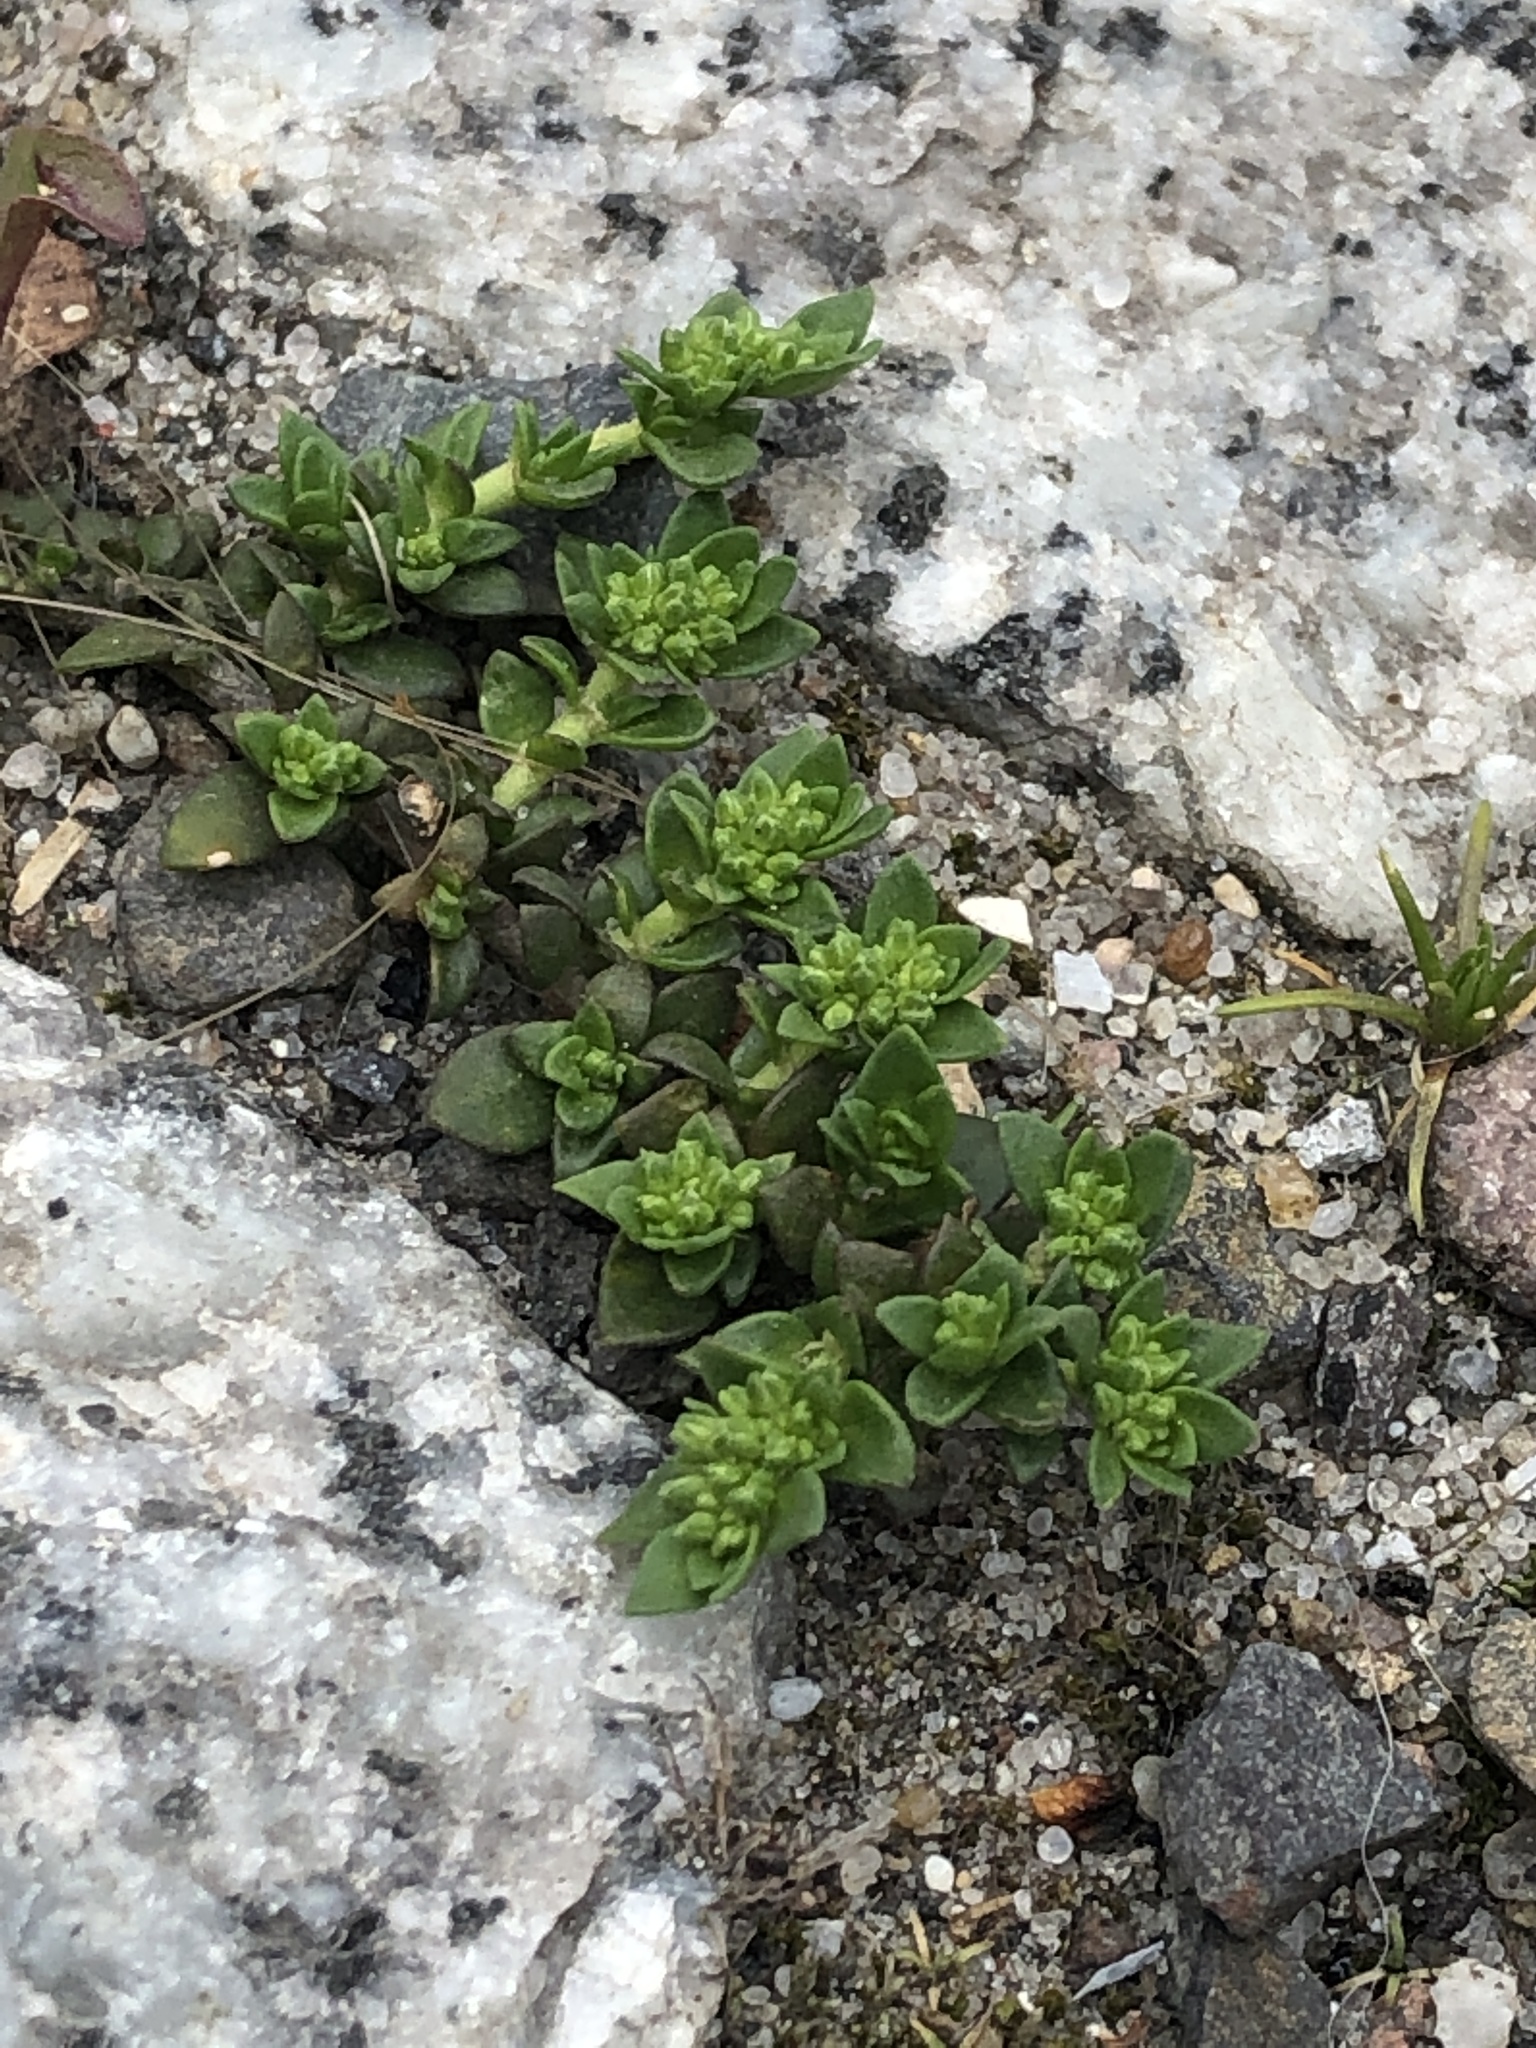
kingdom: Plantae
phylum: Tracheophyta
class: Magnoliopsida
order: Caryophyllales
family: Caryophyllaceae
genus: Herniaria
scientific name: Herniaria glabra
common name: Smooth rupturewort
